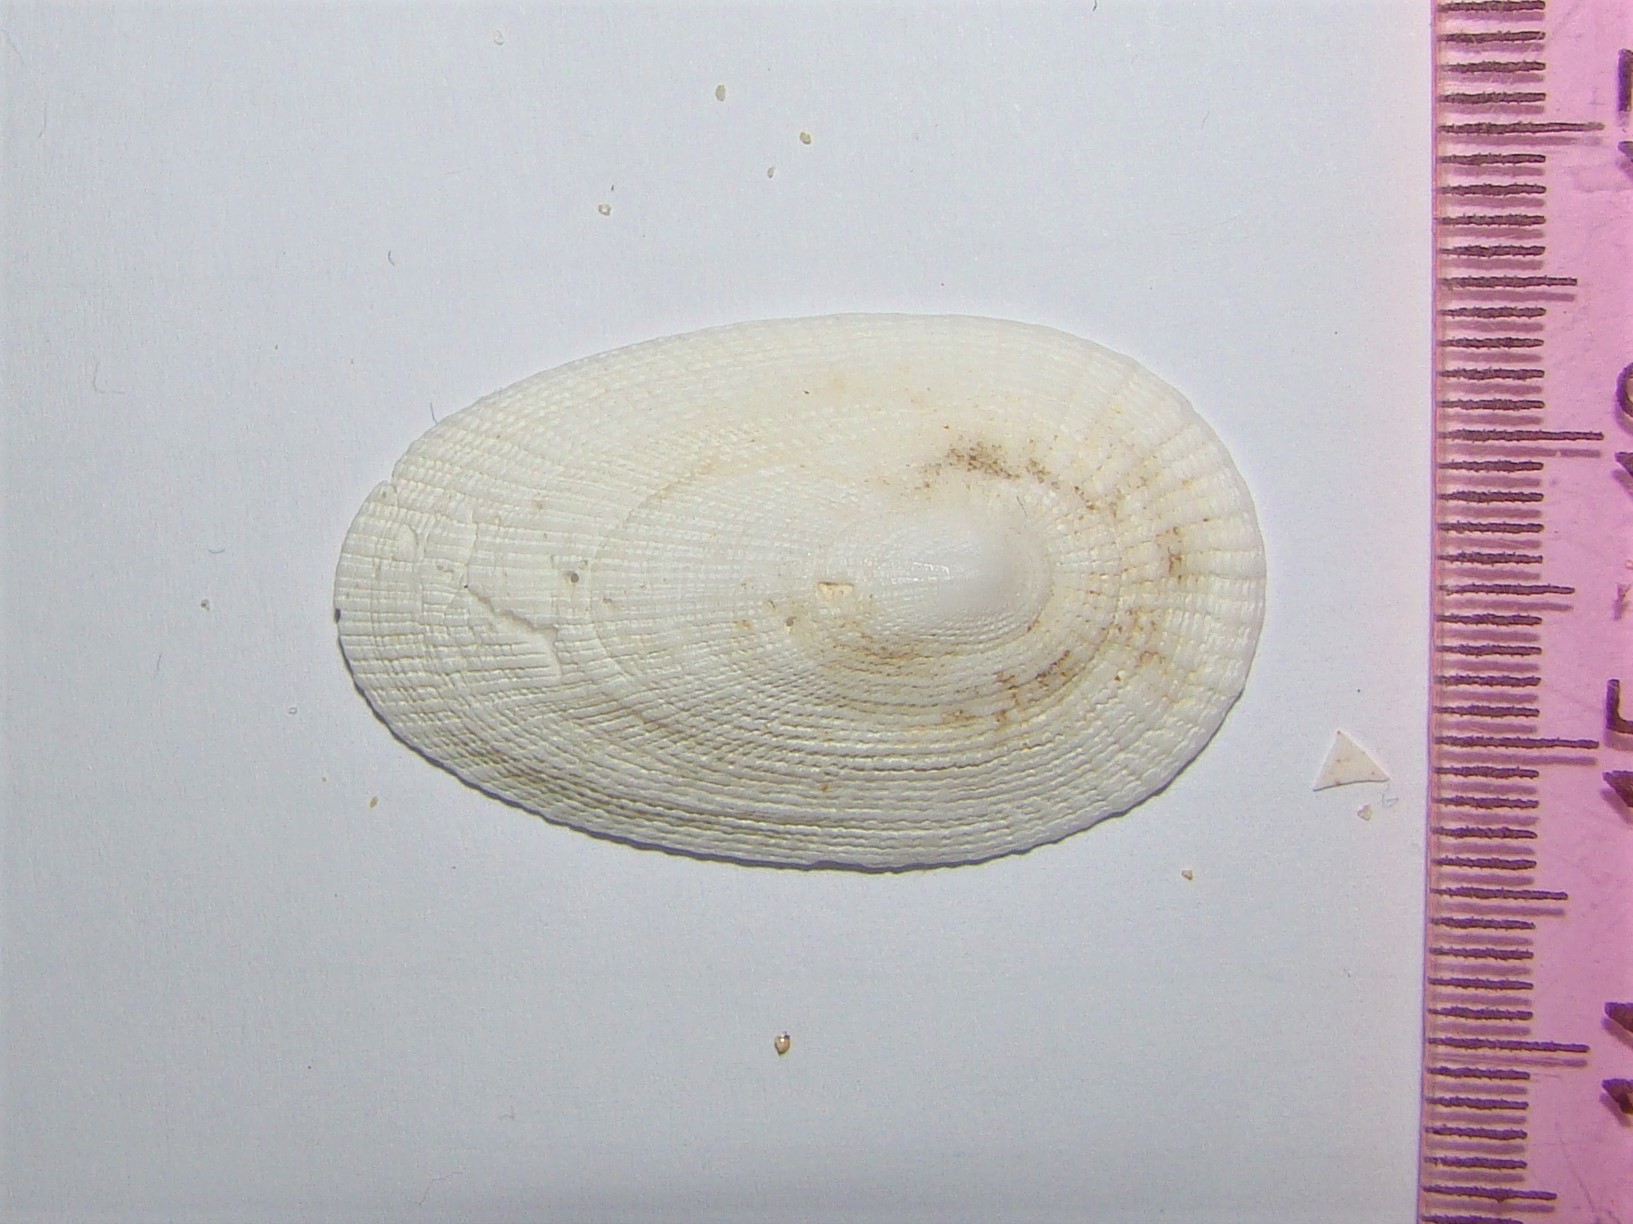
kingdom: Animalia
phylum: Mollusca
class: Gastropoda
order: Lepetellida
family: Fissurellidae
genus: Tugali
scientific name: Tugali elegans
